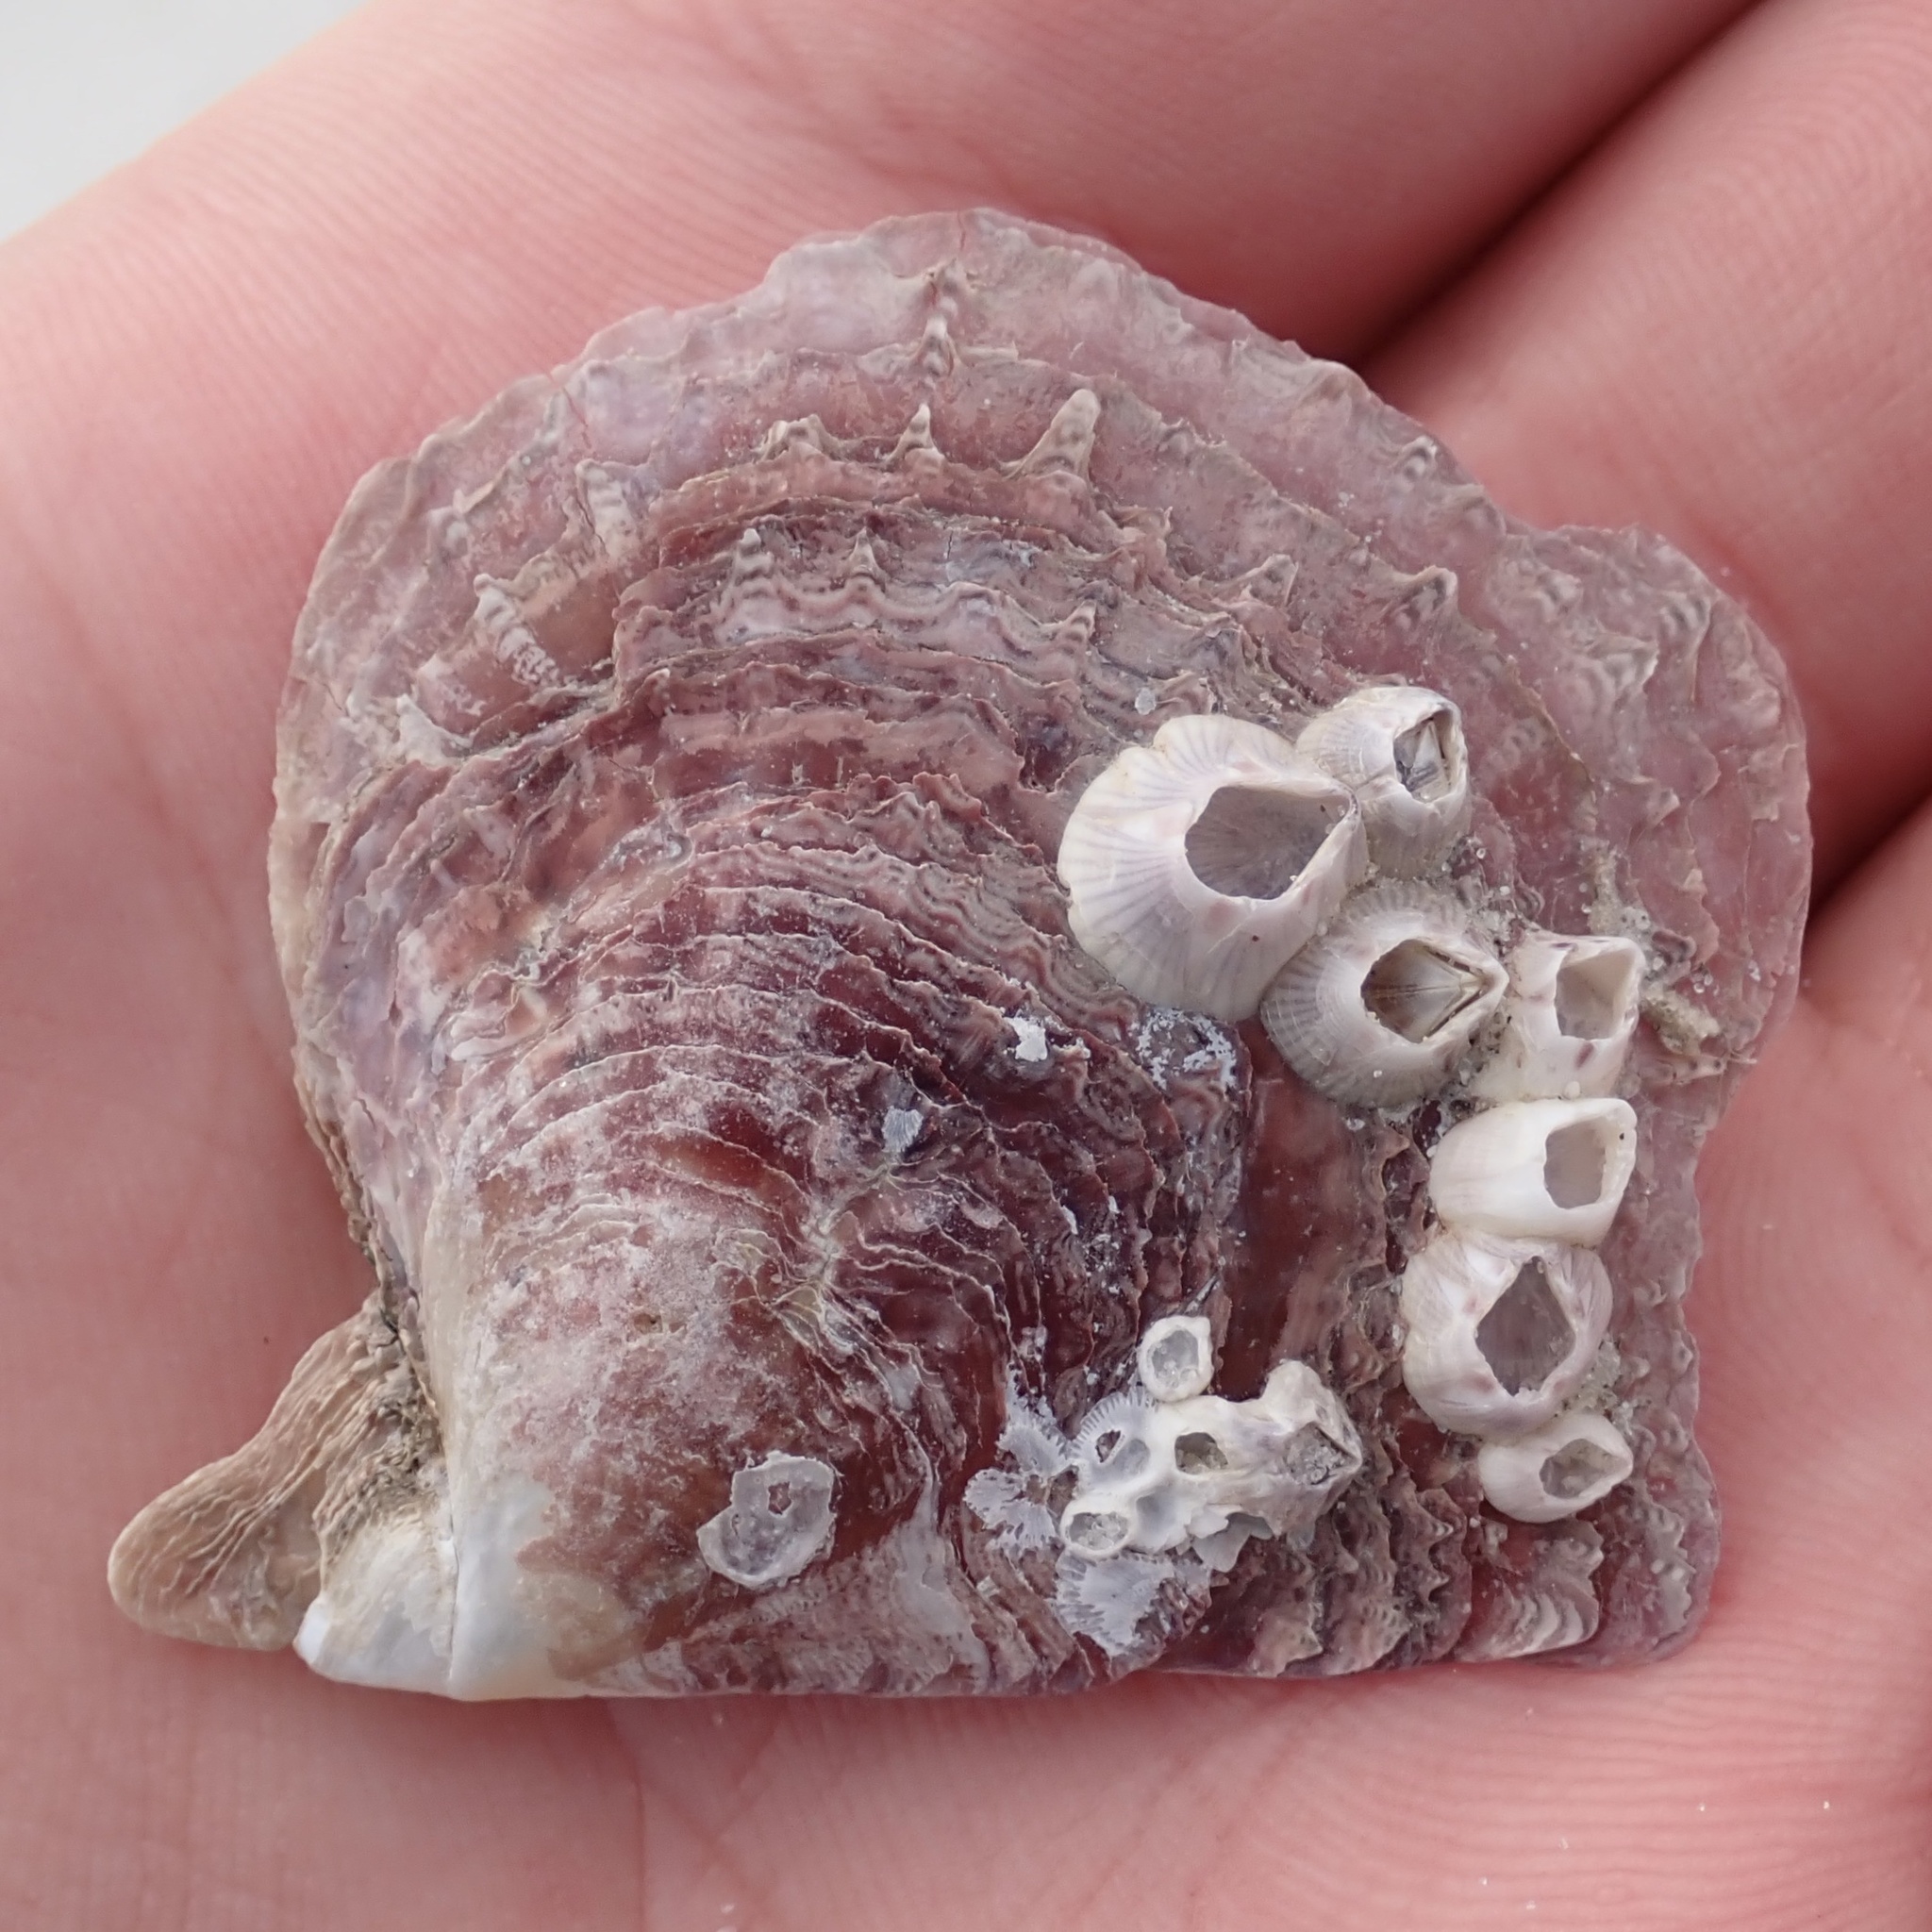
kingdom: Animalia
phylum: Mollusca
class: Bivalvia
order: Ostreida
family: Margaritidae
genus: Pinctada
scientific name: Pinctada imbricata
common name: Atlantic pearl-oyster
